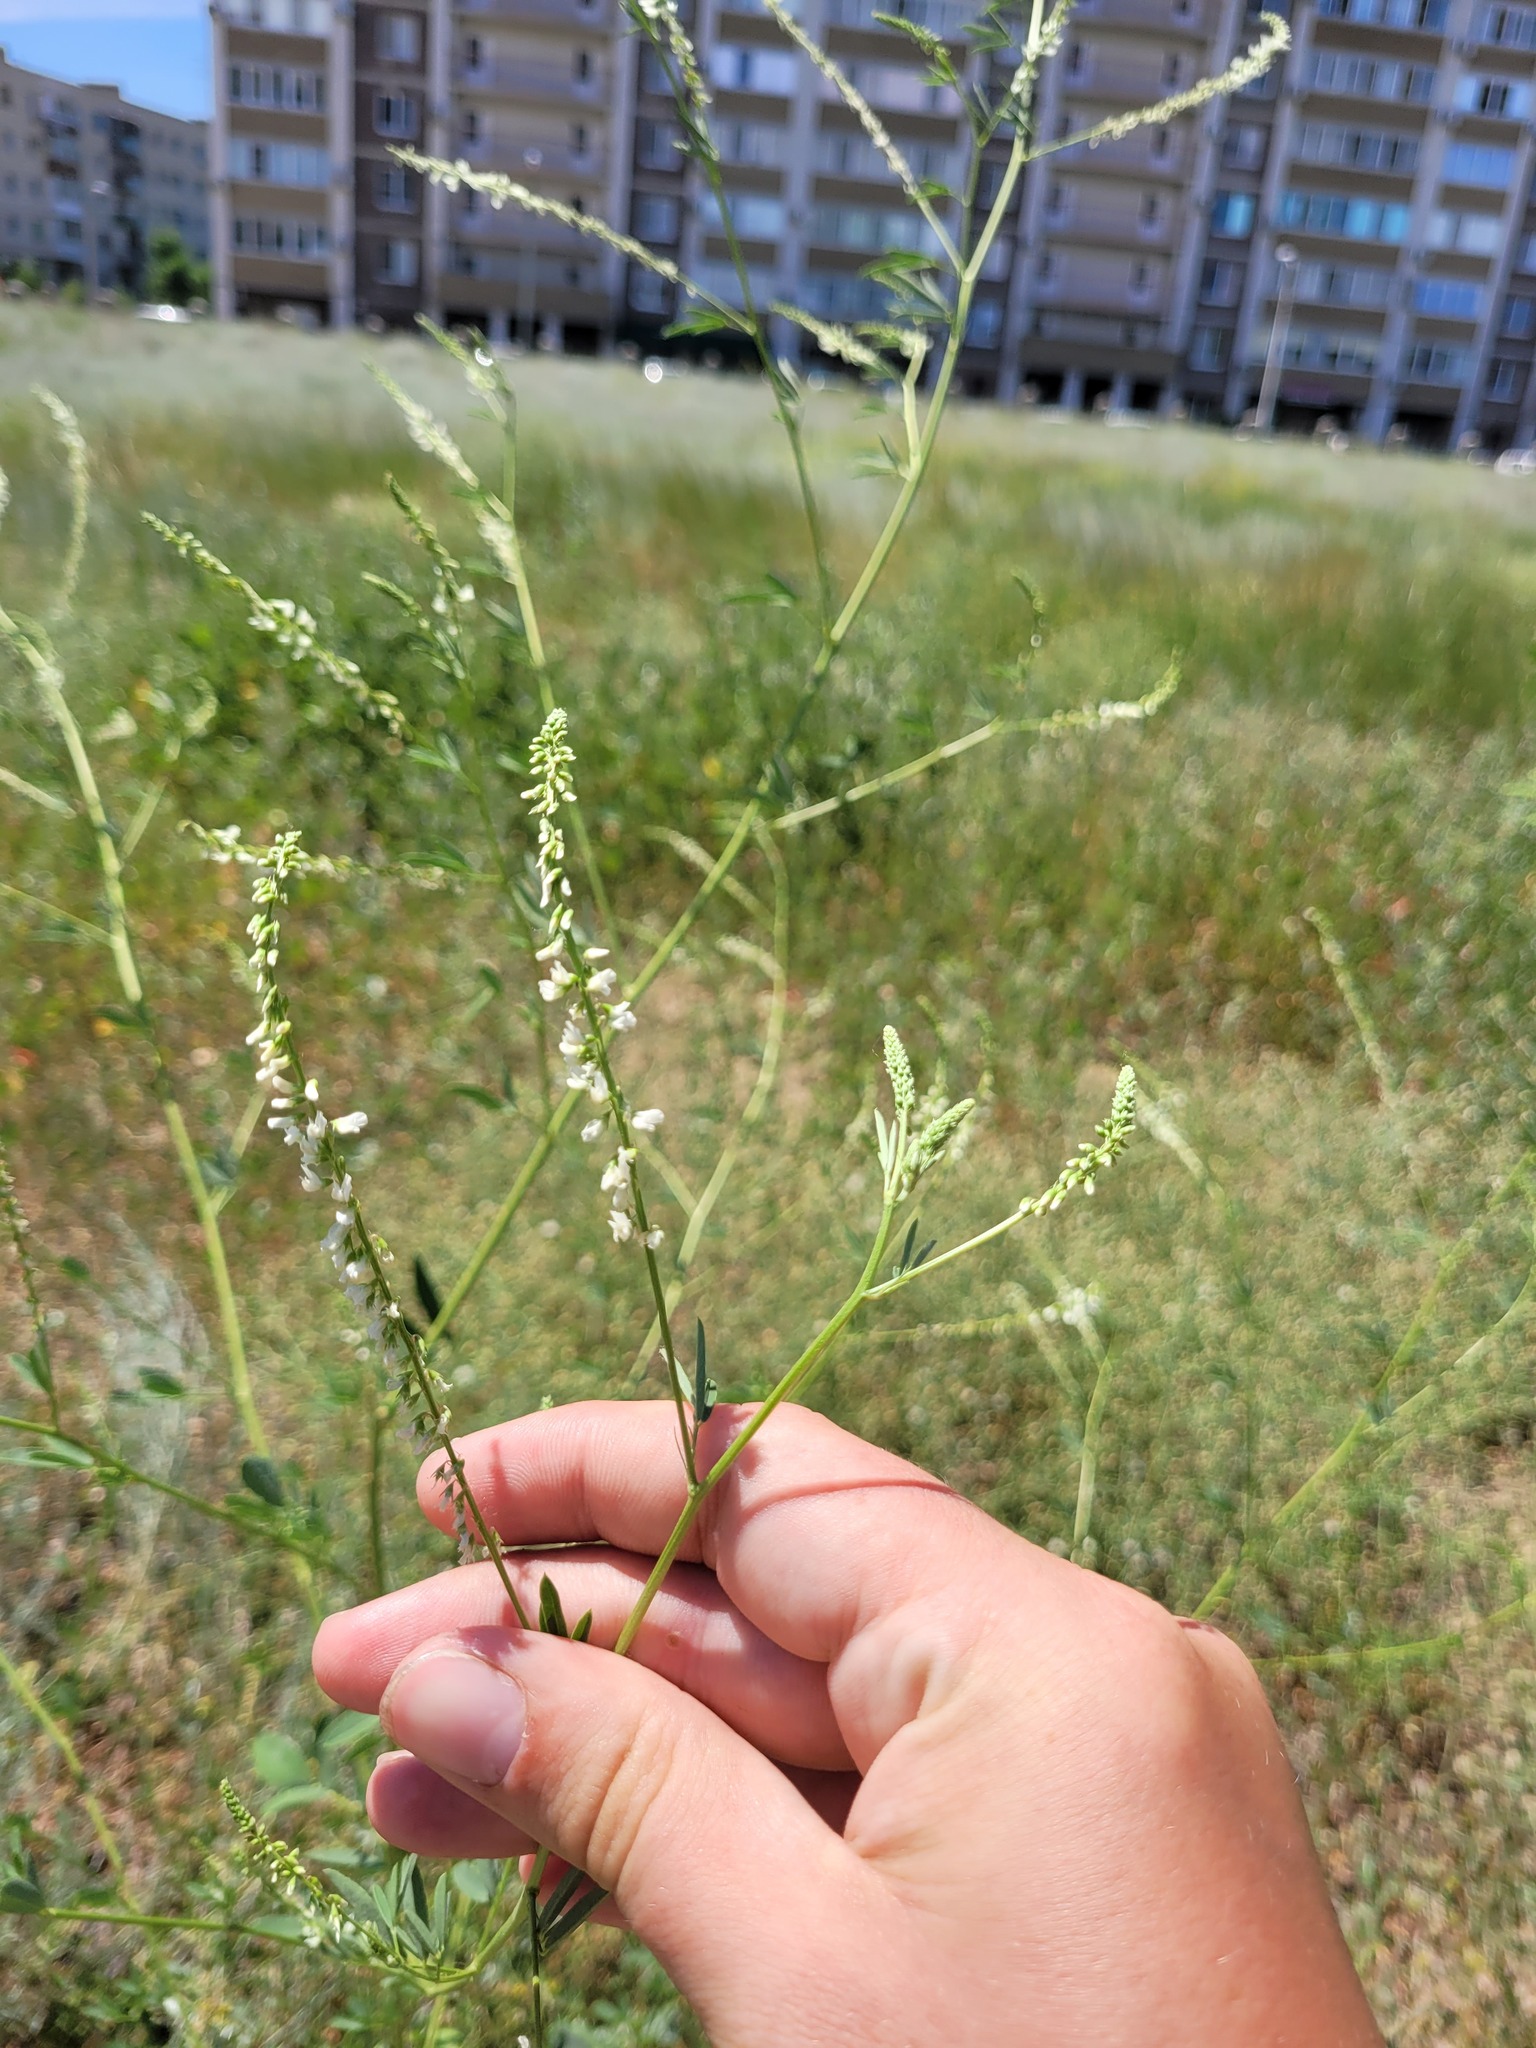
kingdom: Plantae
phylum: Tracheophyta
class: Magnoliopsida
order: Fabales
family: Fabaceae
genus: Melilotus
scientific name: Melilotus albus
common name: White melilot
